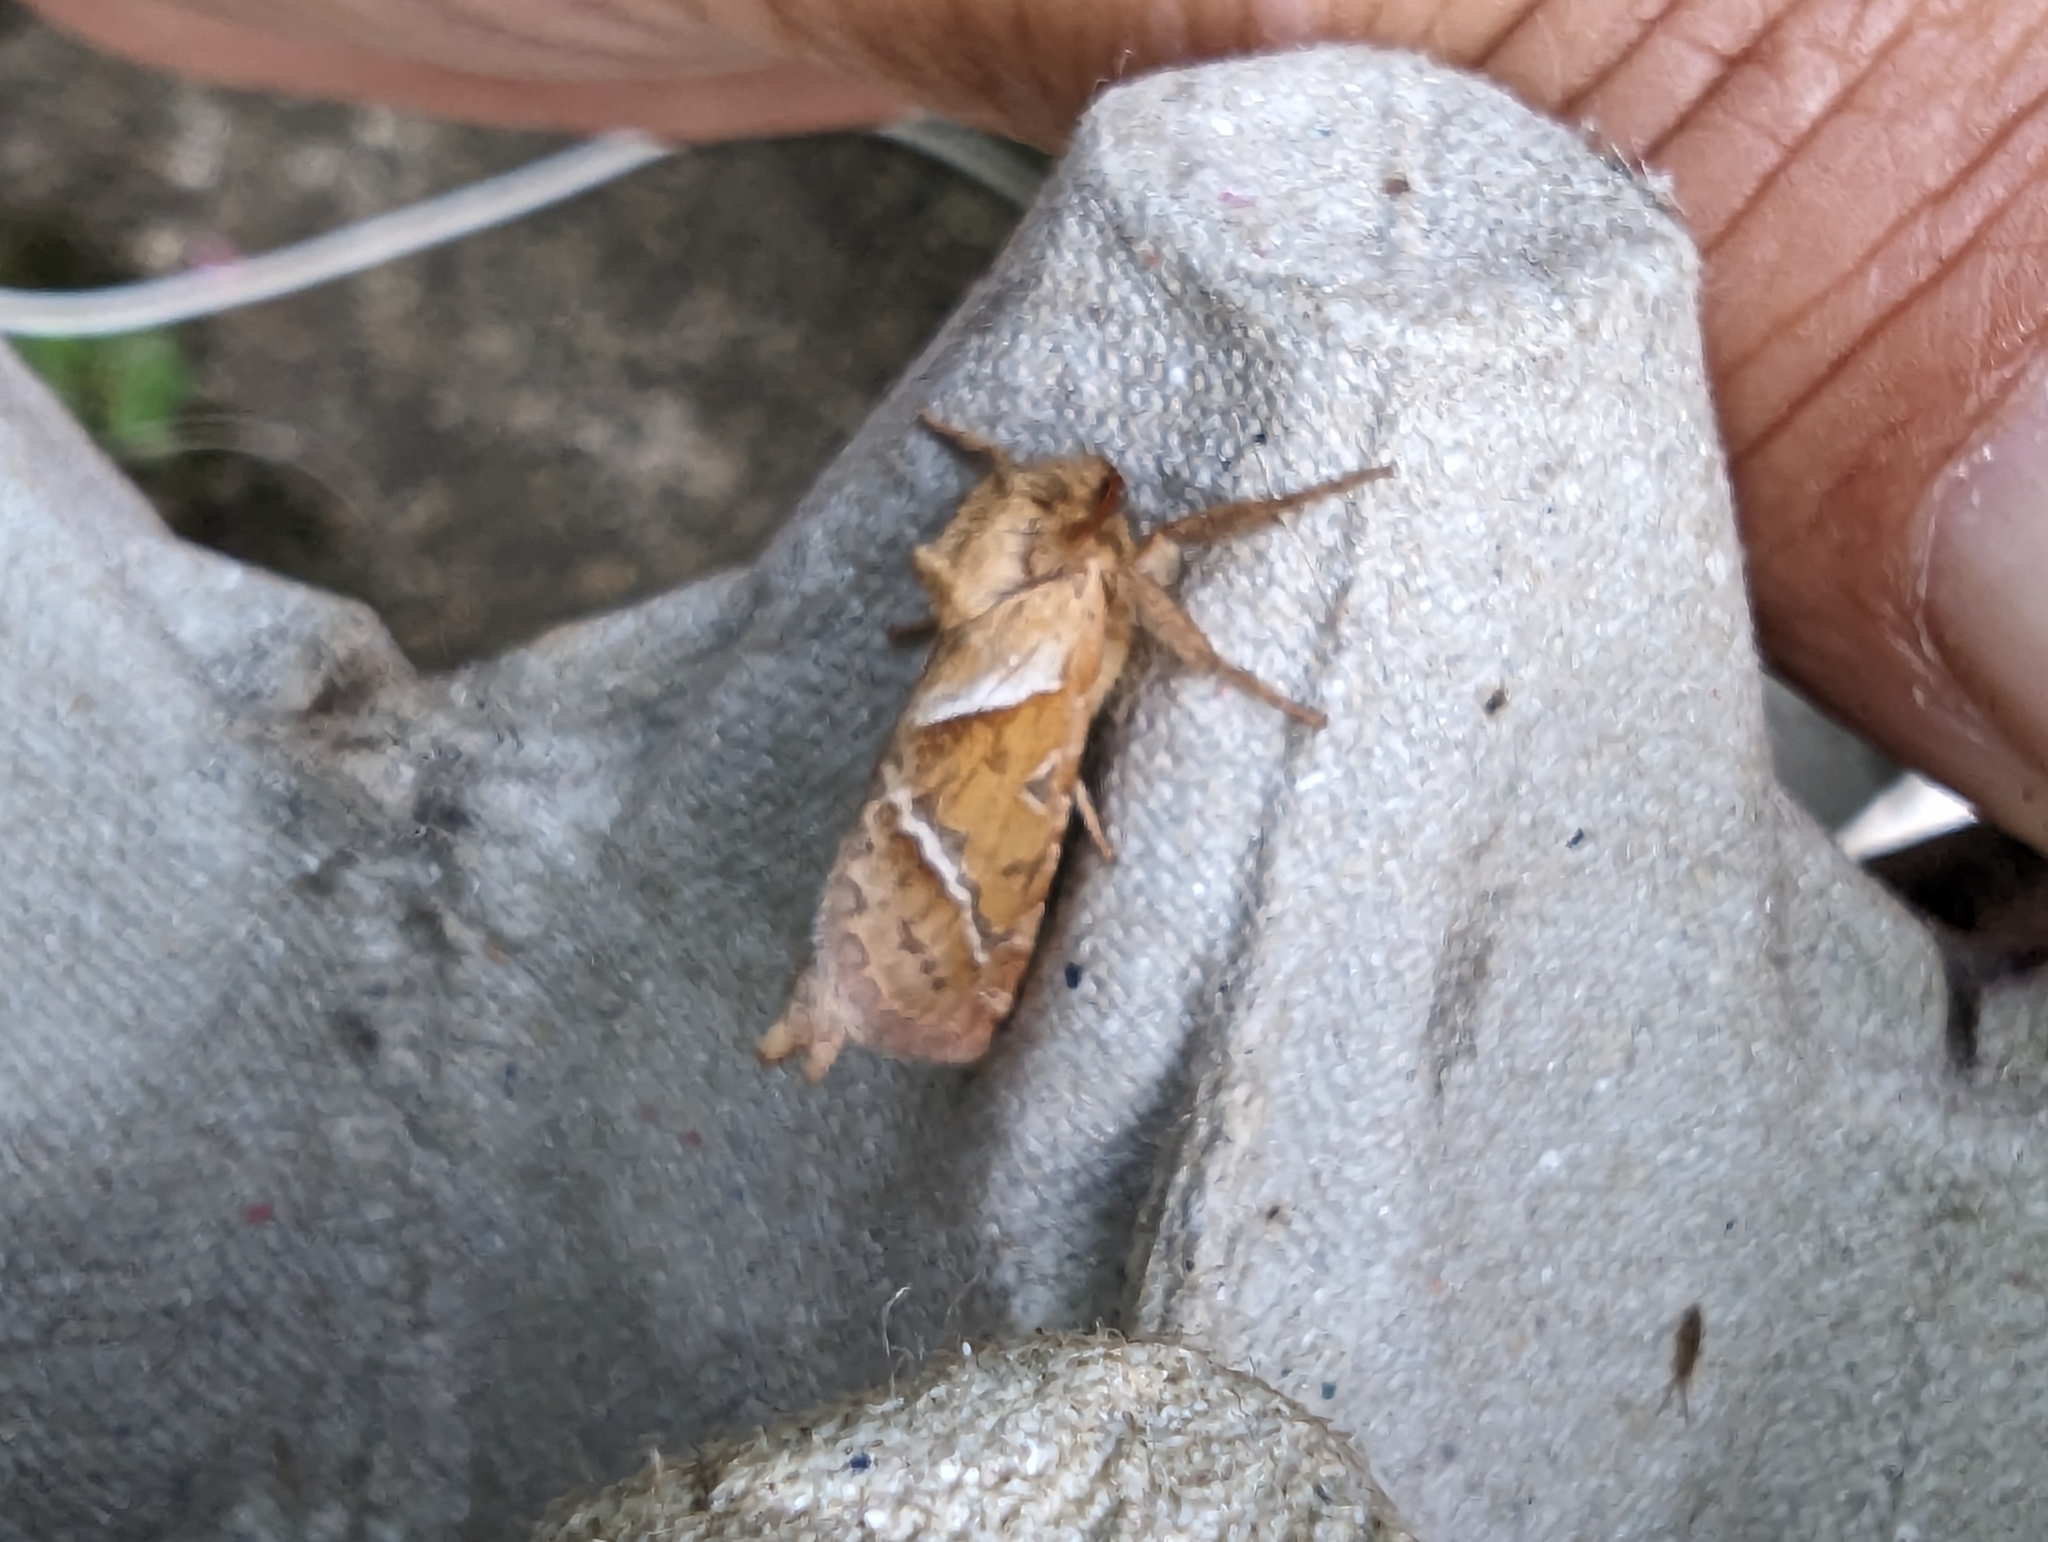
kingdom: Animalia
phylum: Arthropoda
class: Insecta
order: Lepidoptera
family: Hepialidae
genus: Triodia
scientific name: Triodia sylvina
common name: Orange swift
